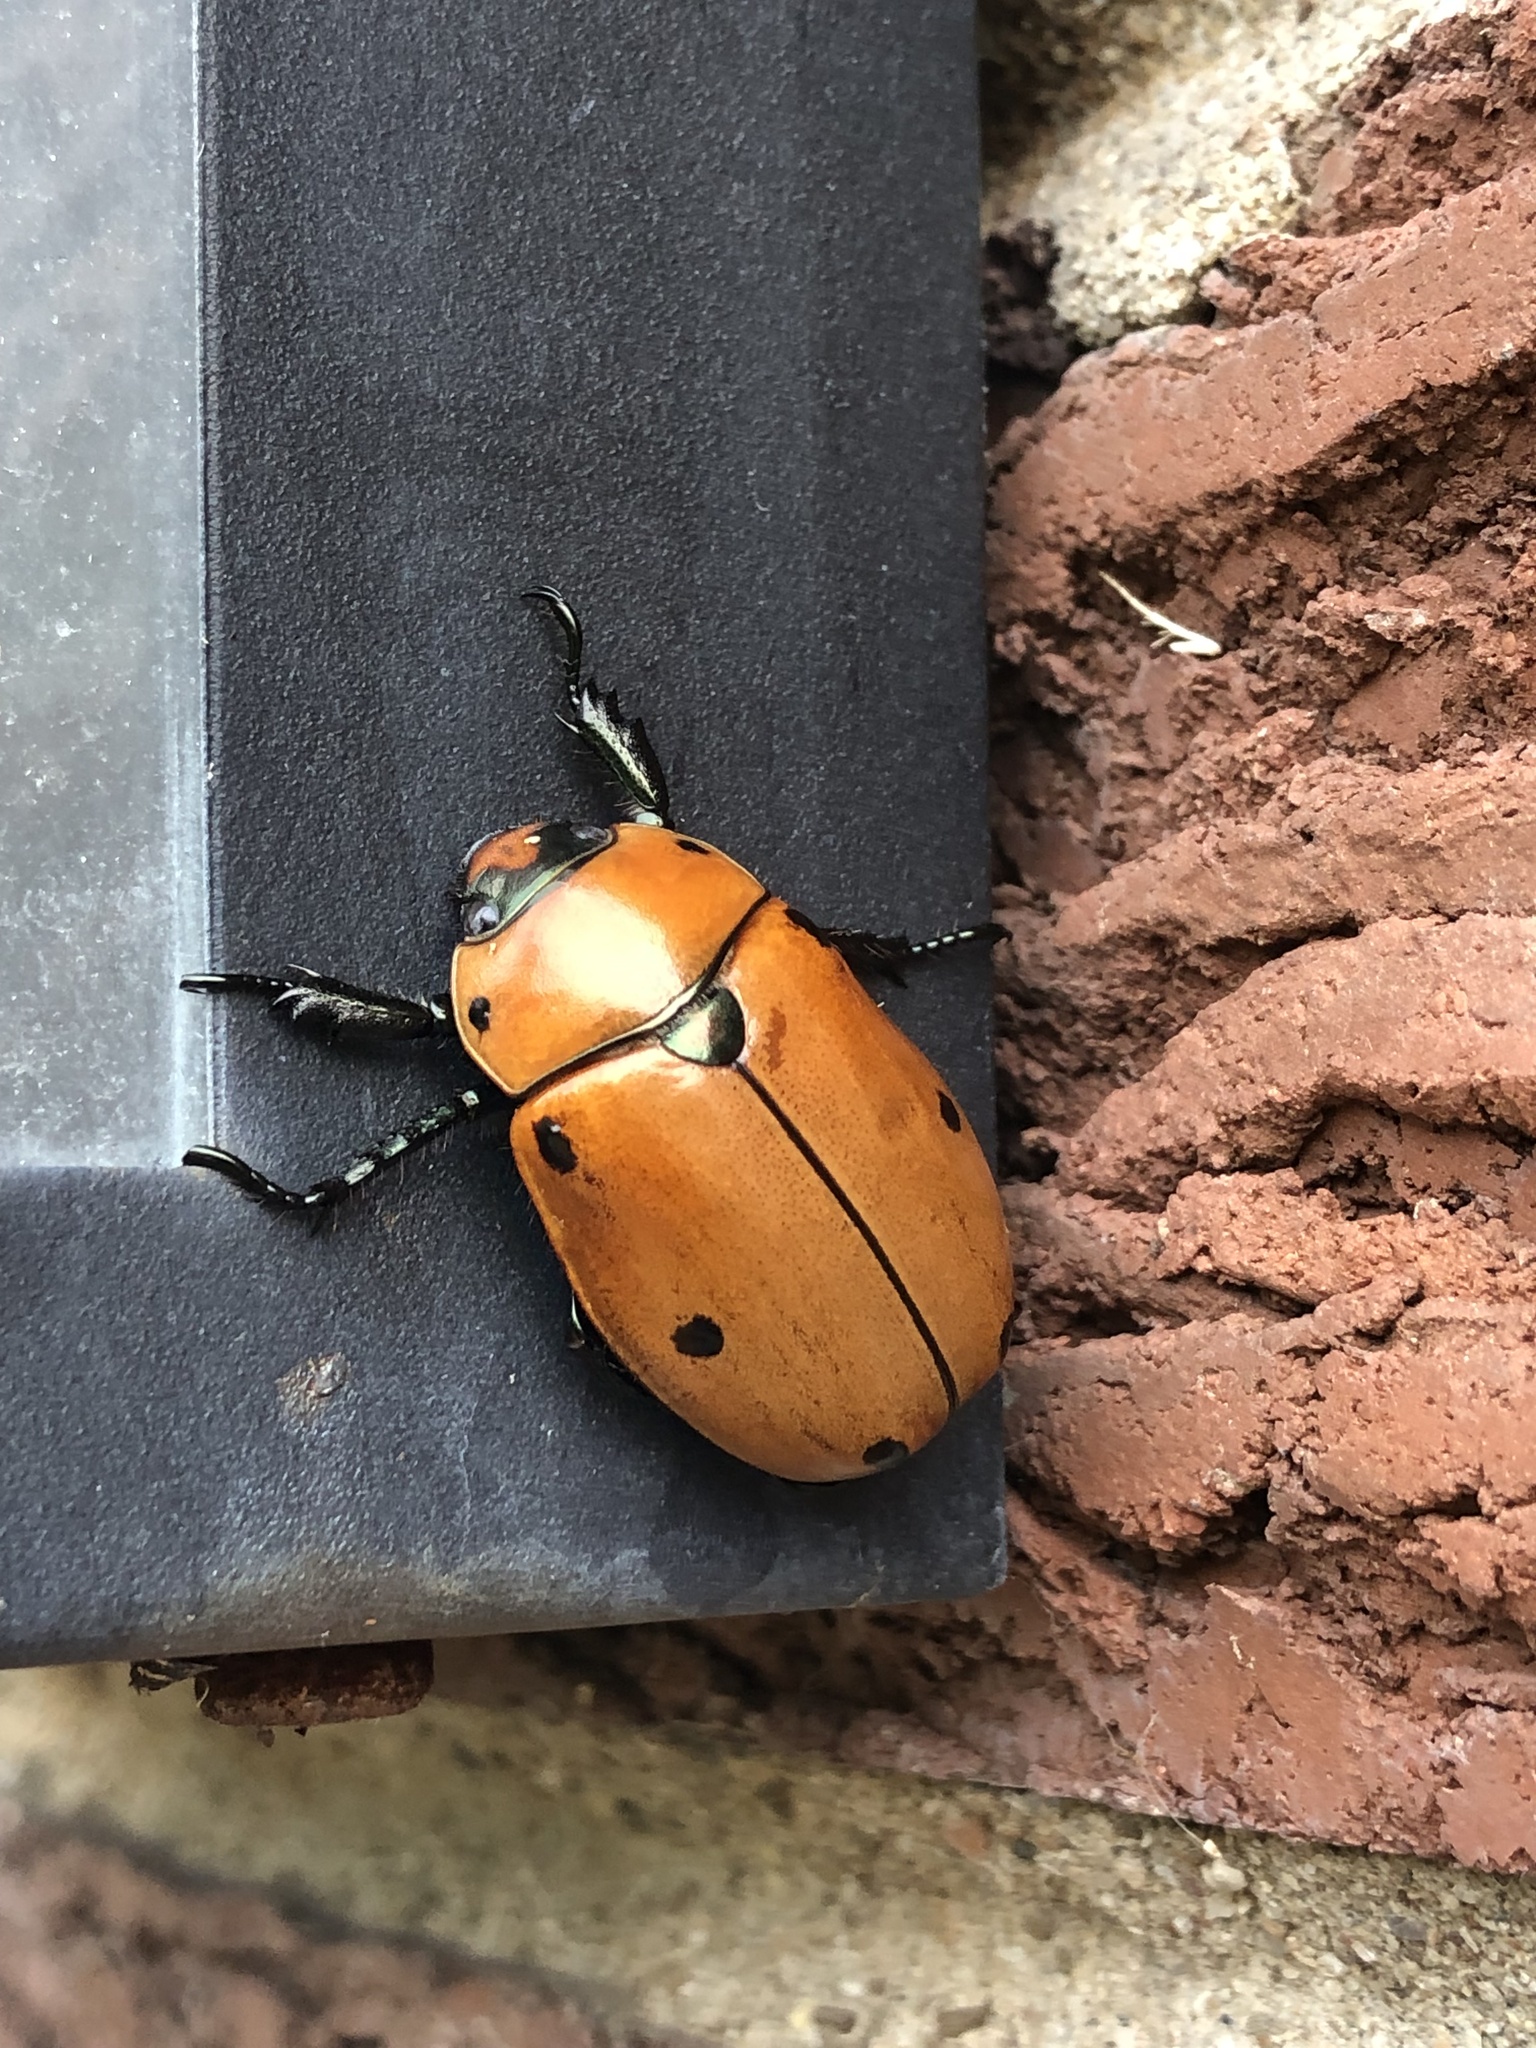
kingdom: Animalia
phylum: Arthropoda
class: Insecta
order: Coleoptera
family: Scarabaeidae
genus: Pelidnota
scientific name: Pelidnota punctata
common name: Grapevine beetle
